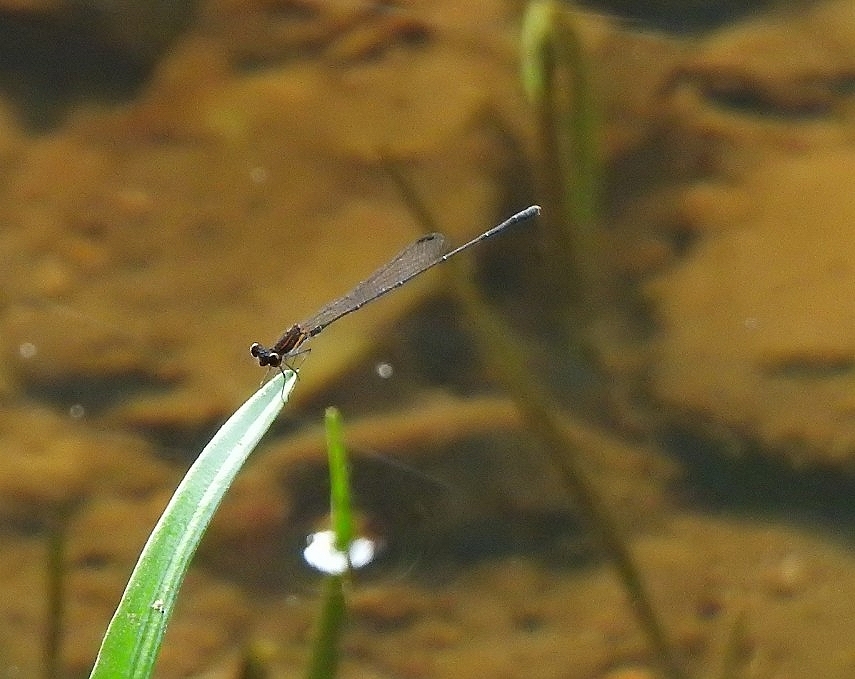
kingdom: Animalia
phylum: Arthropoda
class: Insecta
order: Odonata
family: Platycnemididae
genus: Prodasineura
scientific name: Prodasineura verticalis
